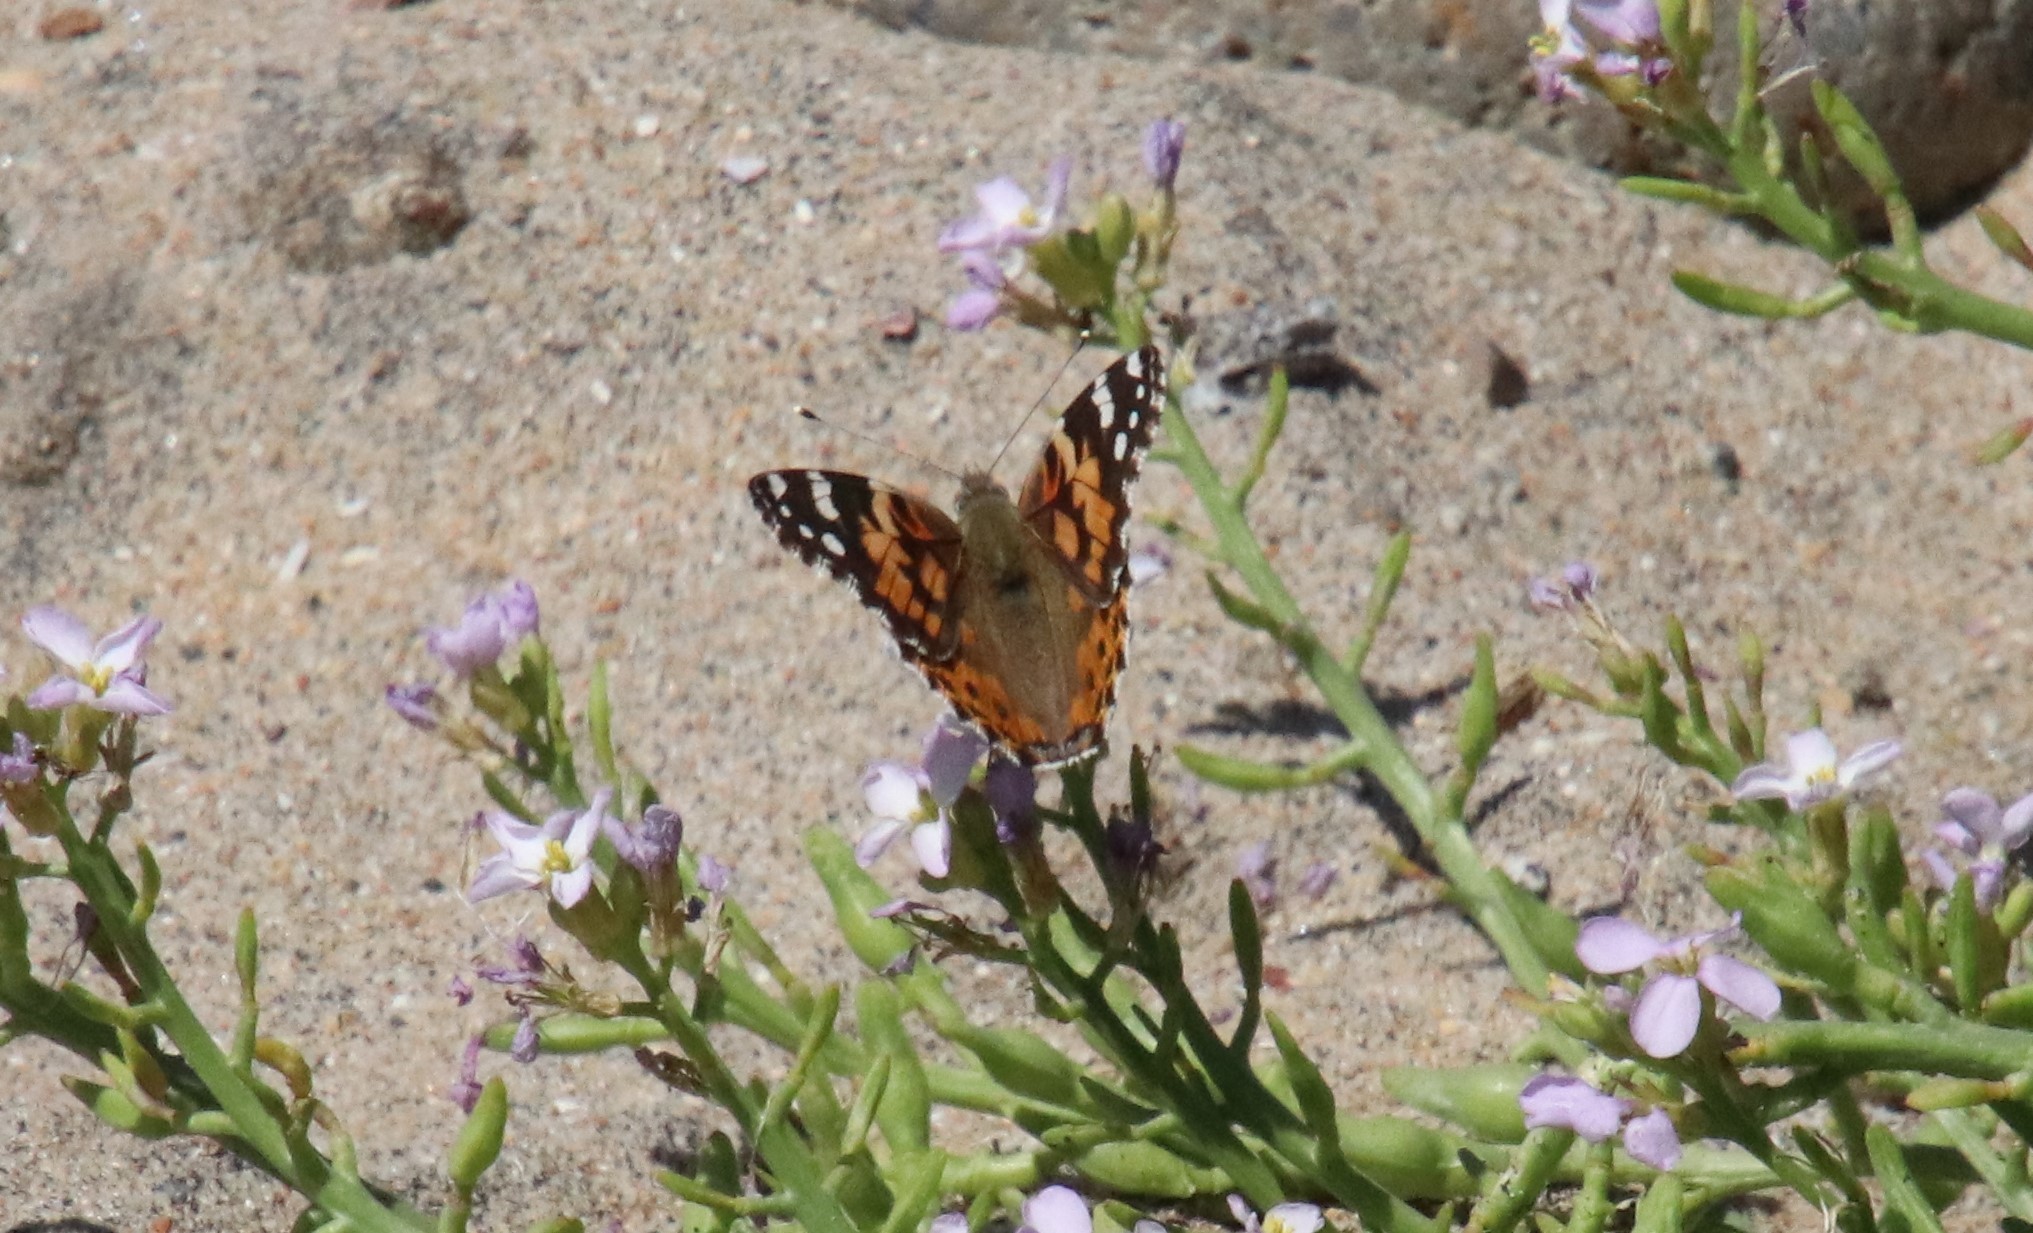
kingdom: Animalia
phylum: Arthropoda
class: Insecta
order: Lepidoptera
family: Nymphalidae
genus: Vanessa
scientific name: Vanessa cardui
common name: Painted lady
